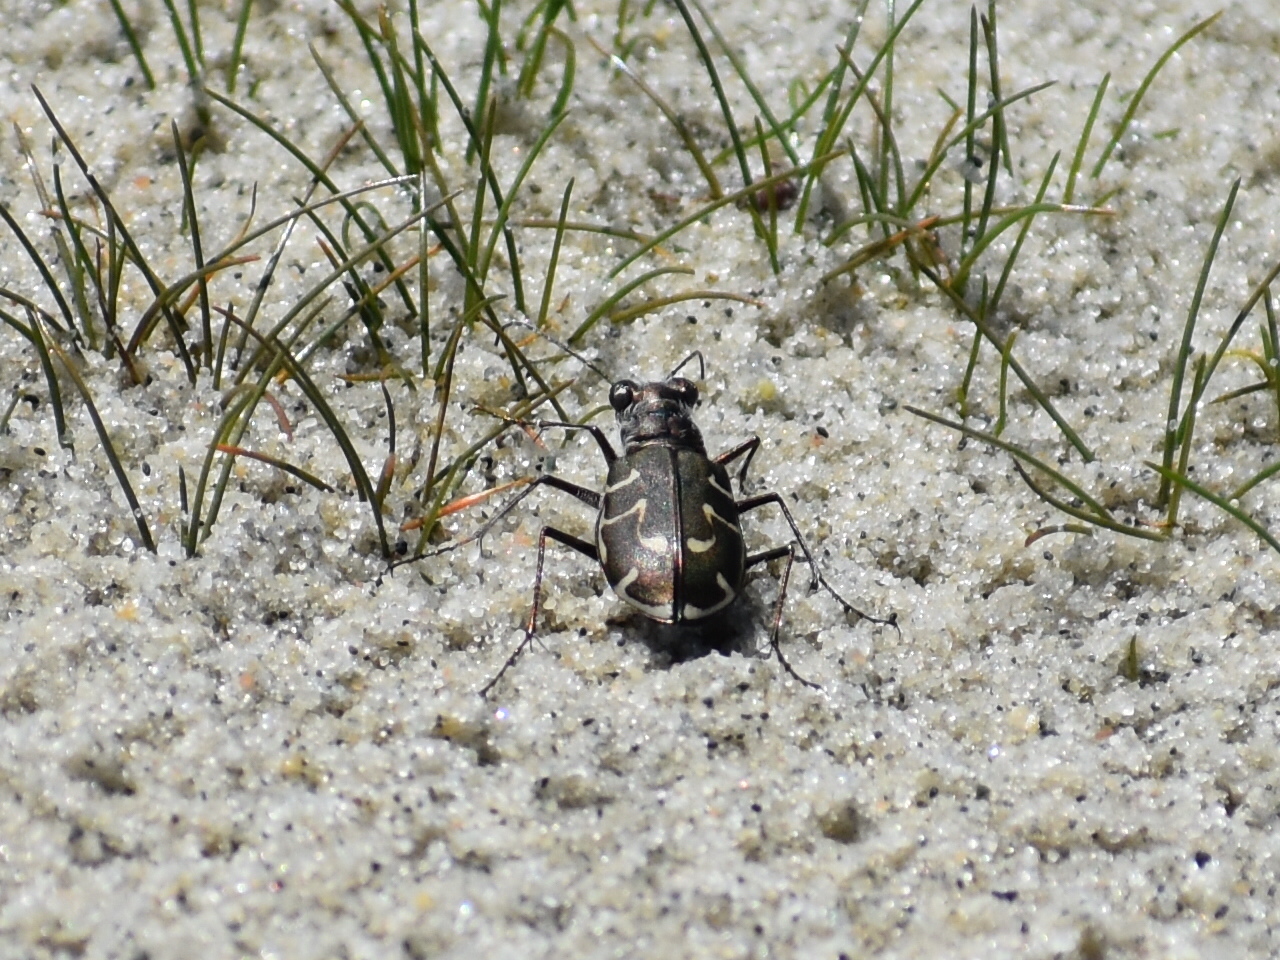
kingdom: Animalia
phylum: Arthropoda
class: Insecta
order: Coleoptera
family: Carabidae
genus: Cicindela
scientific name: Cicindela hirticollis
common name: Hairy-necked tiger beetle
